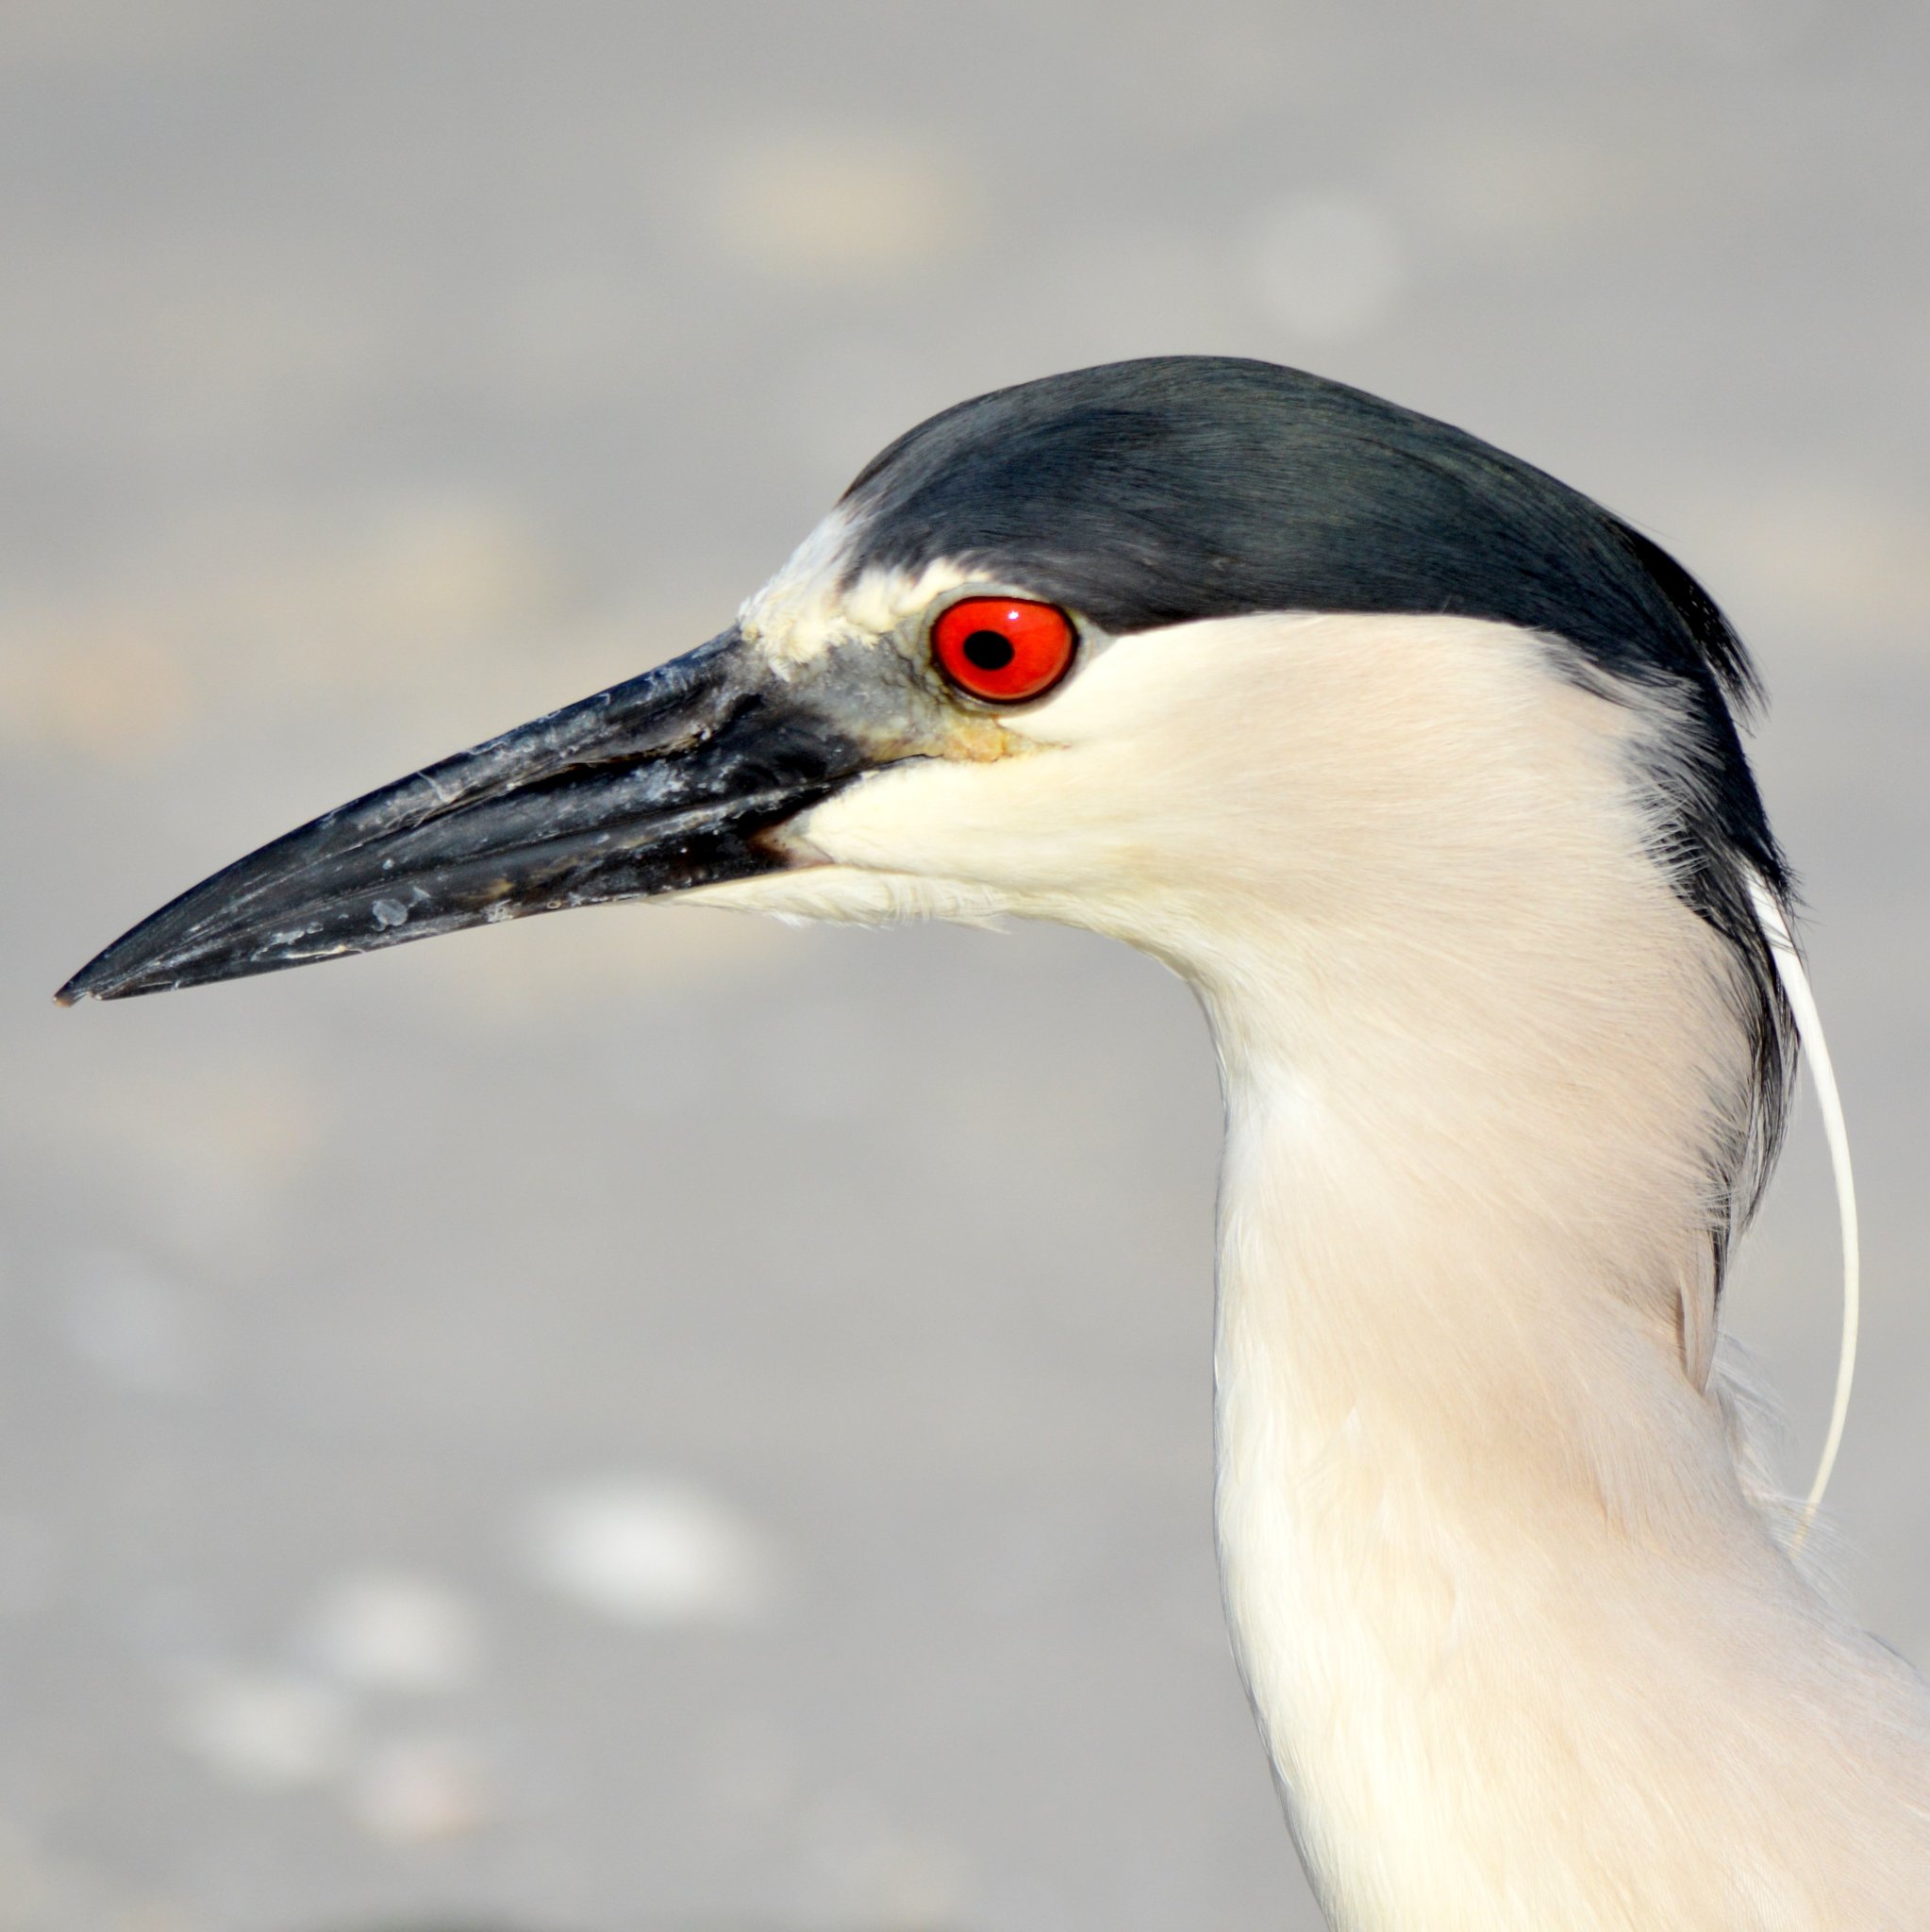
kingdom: Animalia
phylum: Chordata
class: Aves
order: Pelecaniformes
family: Ardeidae
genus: Nycticorax
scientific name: Nycticorax nycticorax
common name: Black-crowned night heron
